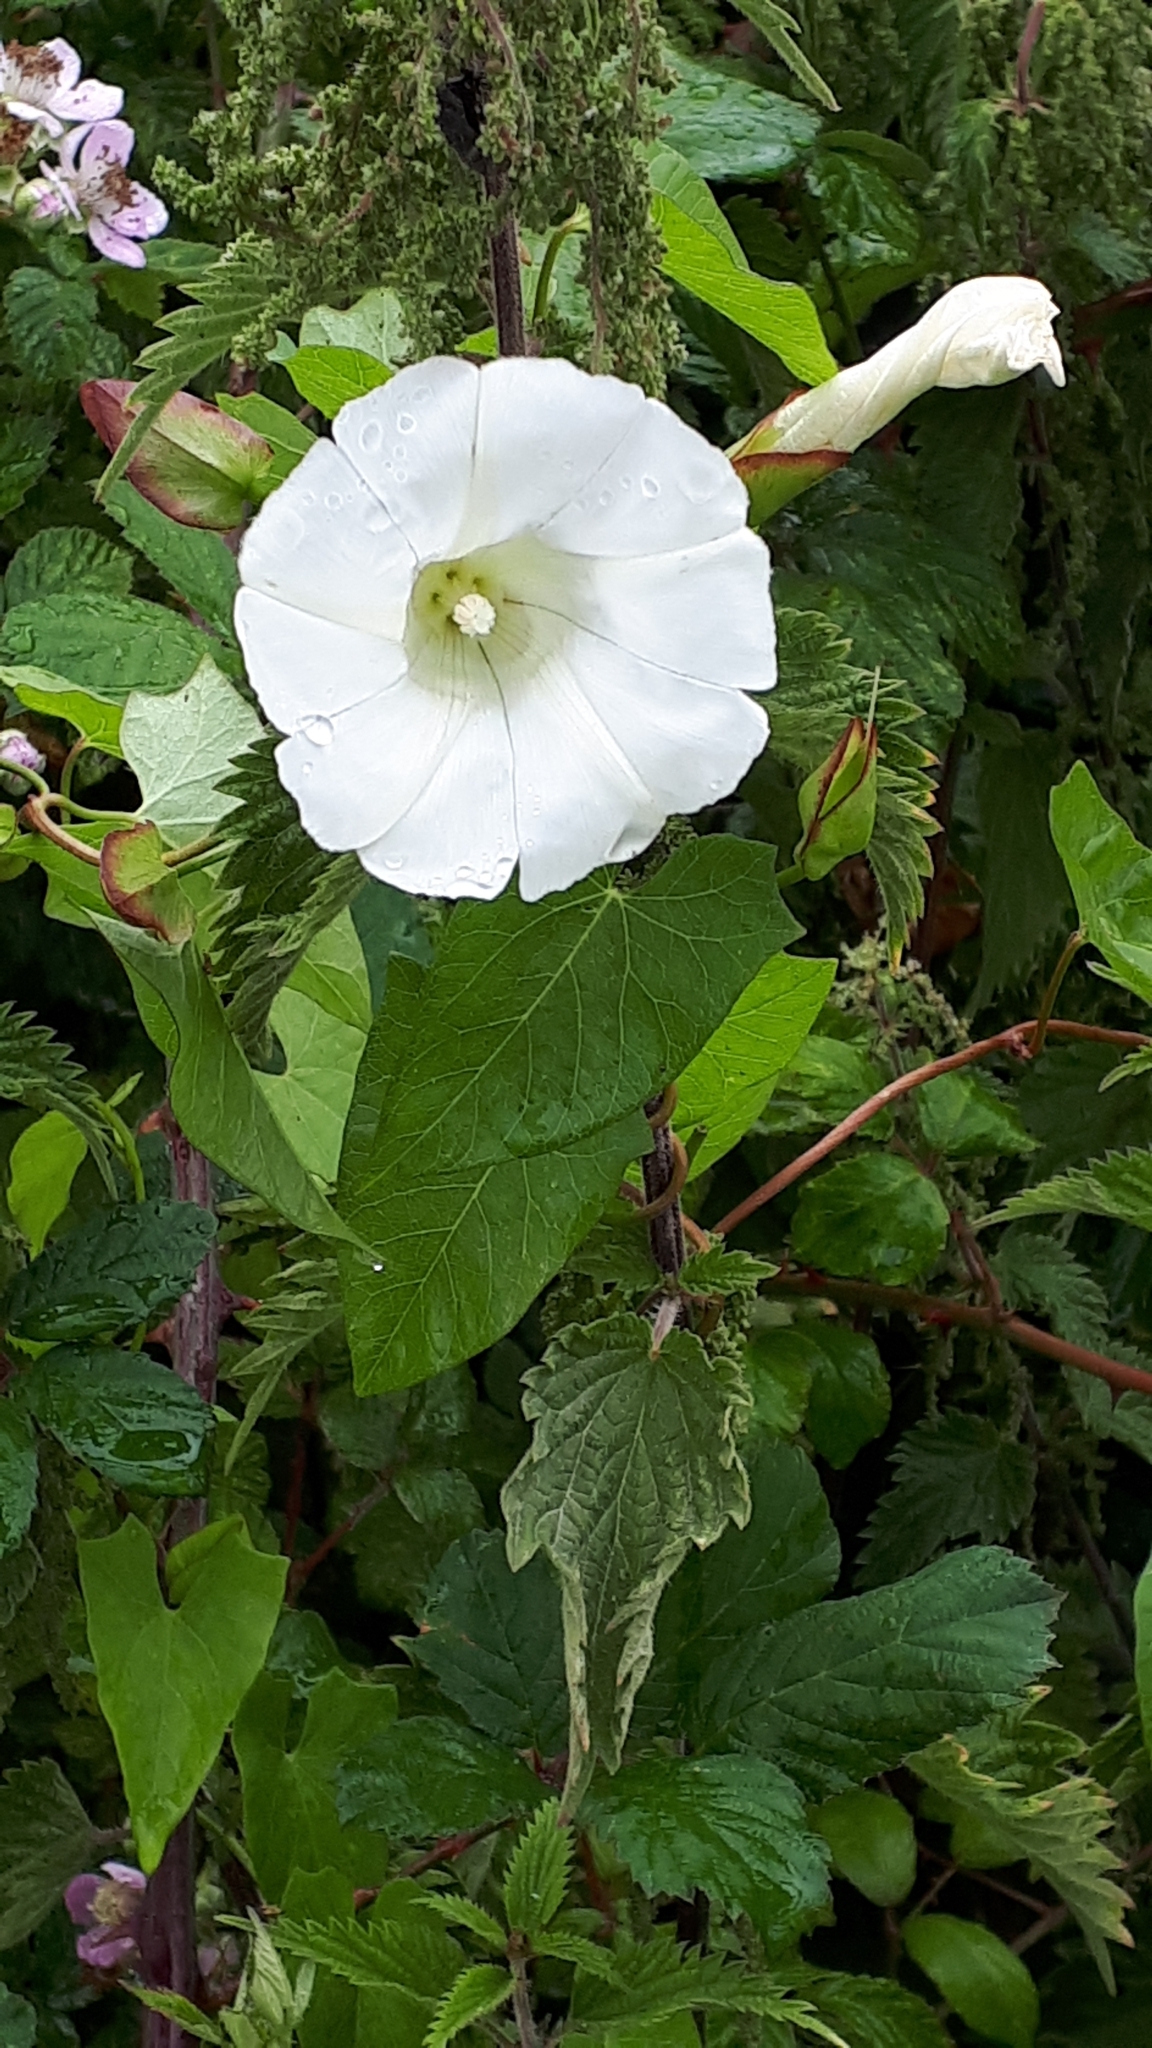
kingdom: Plantae
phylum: Tracheophyta
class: Magnoliopsida
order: Solanales
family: Convolvulaceae
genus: Calystegia
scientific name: Calystegia sepium
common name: Hedge bindweed
